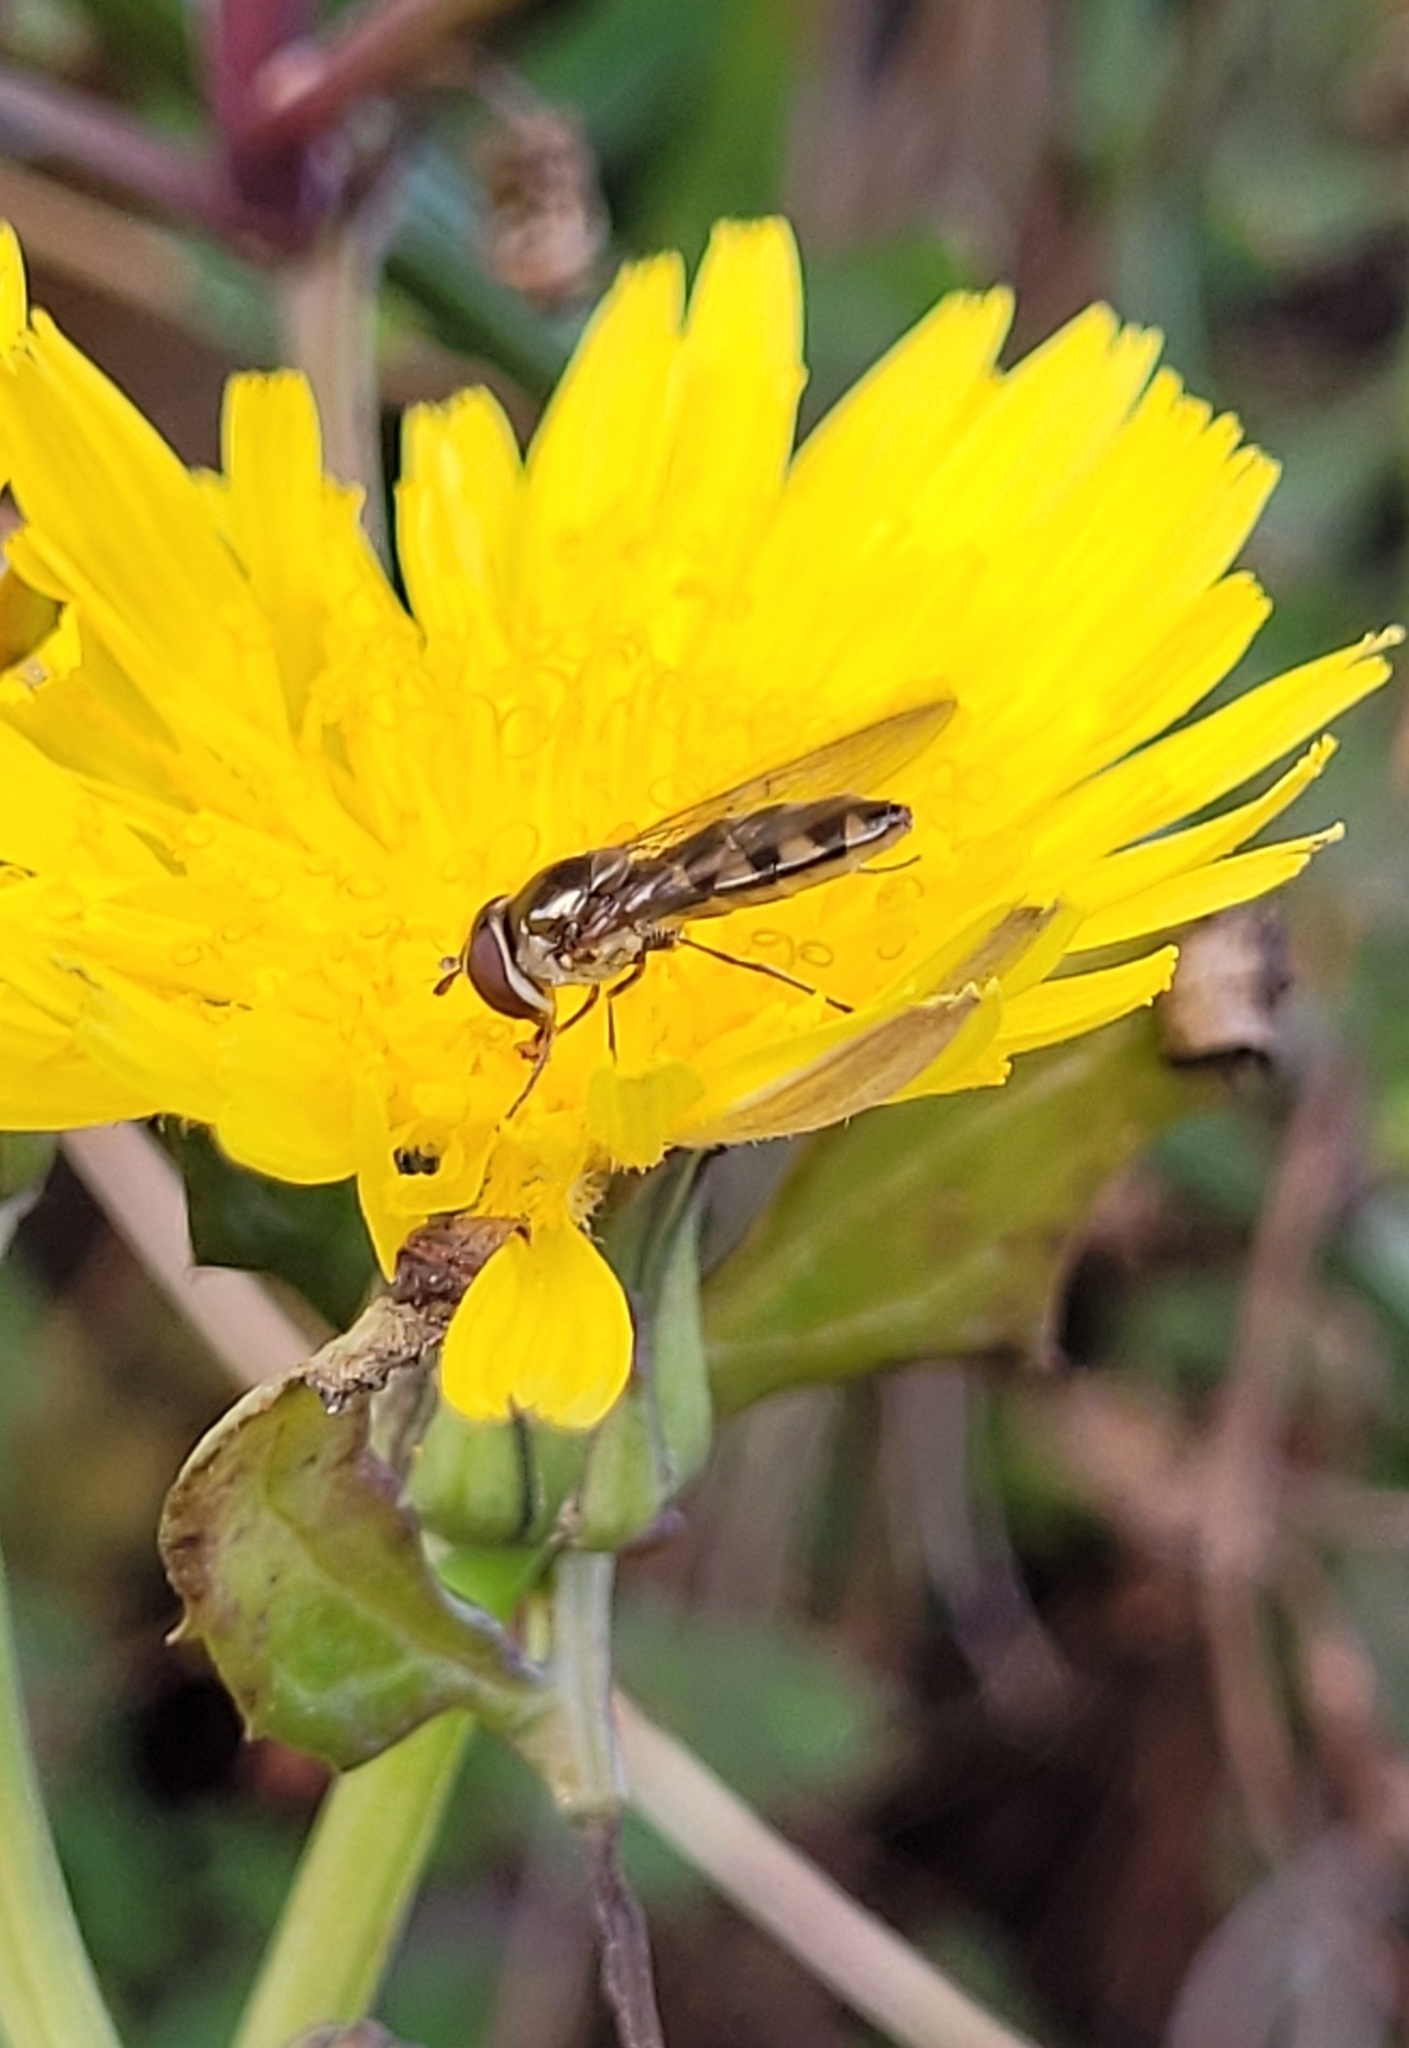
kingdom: Animalia
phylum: Arthropoda
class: Insecta
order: Diptera
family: Syrphidae
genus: Meliscaeva
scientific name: Meliscaeva auricollis
